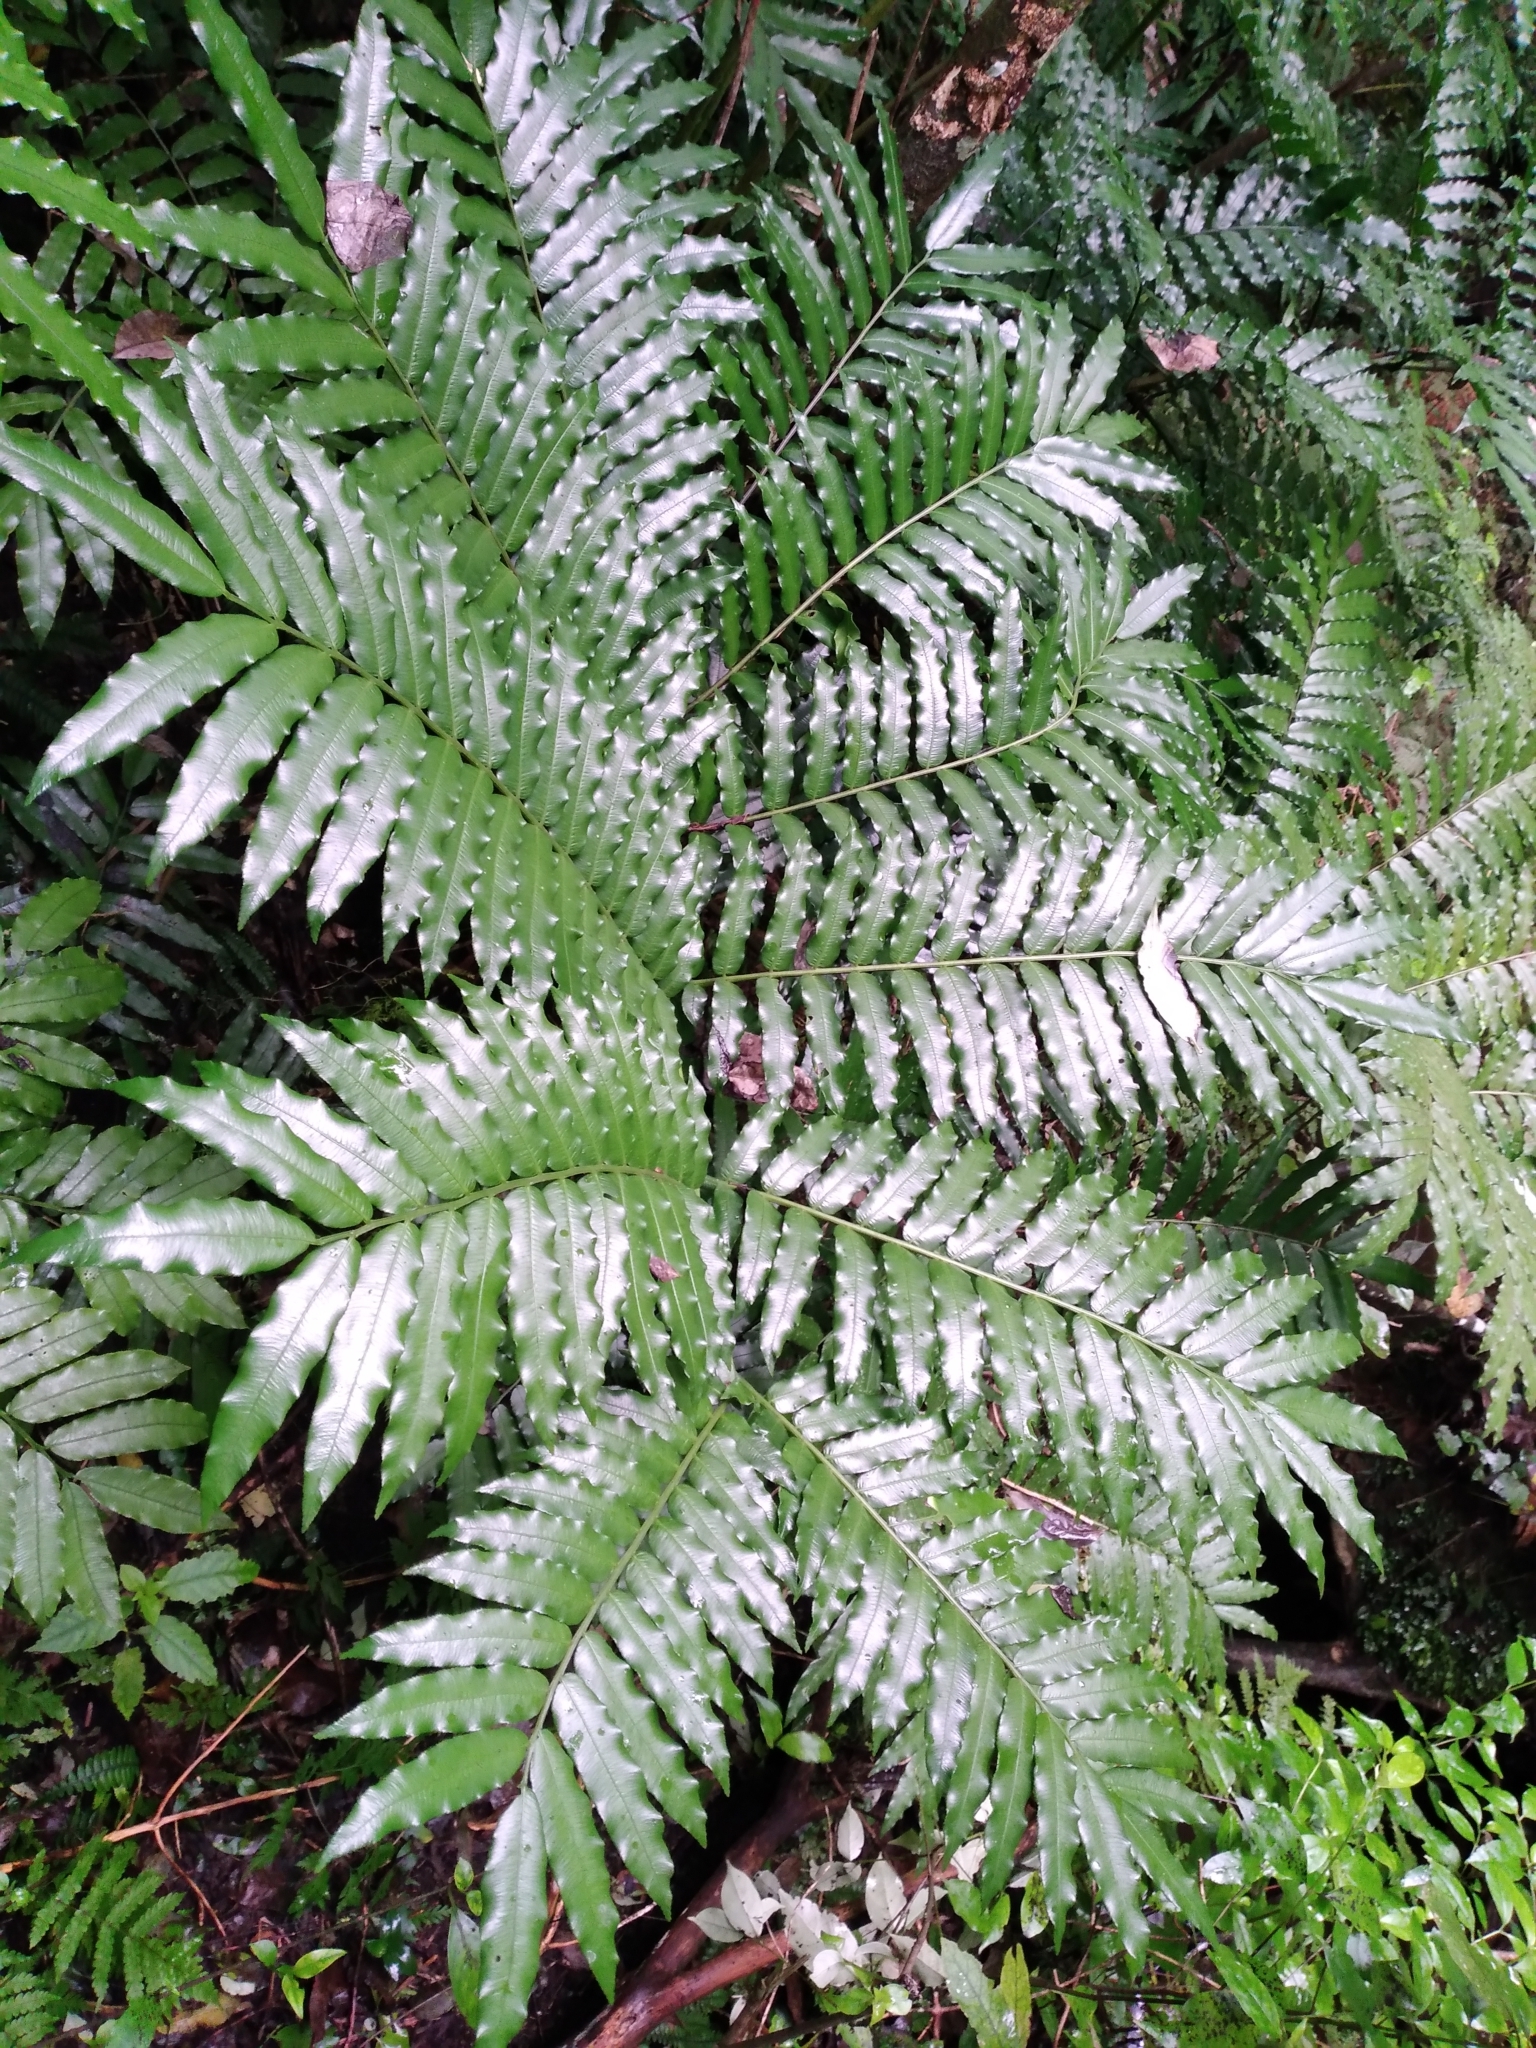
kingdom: Plantae
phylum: Tracheophyta
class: Polypodiopsida
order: Marattiales
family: Marattiaceae
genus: Ptisana
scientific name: Ptisana salicina
